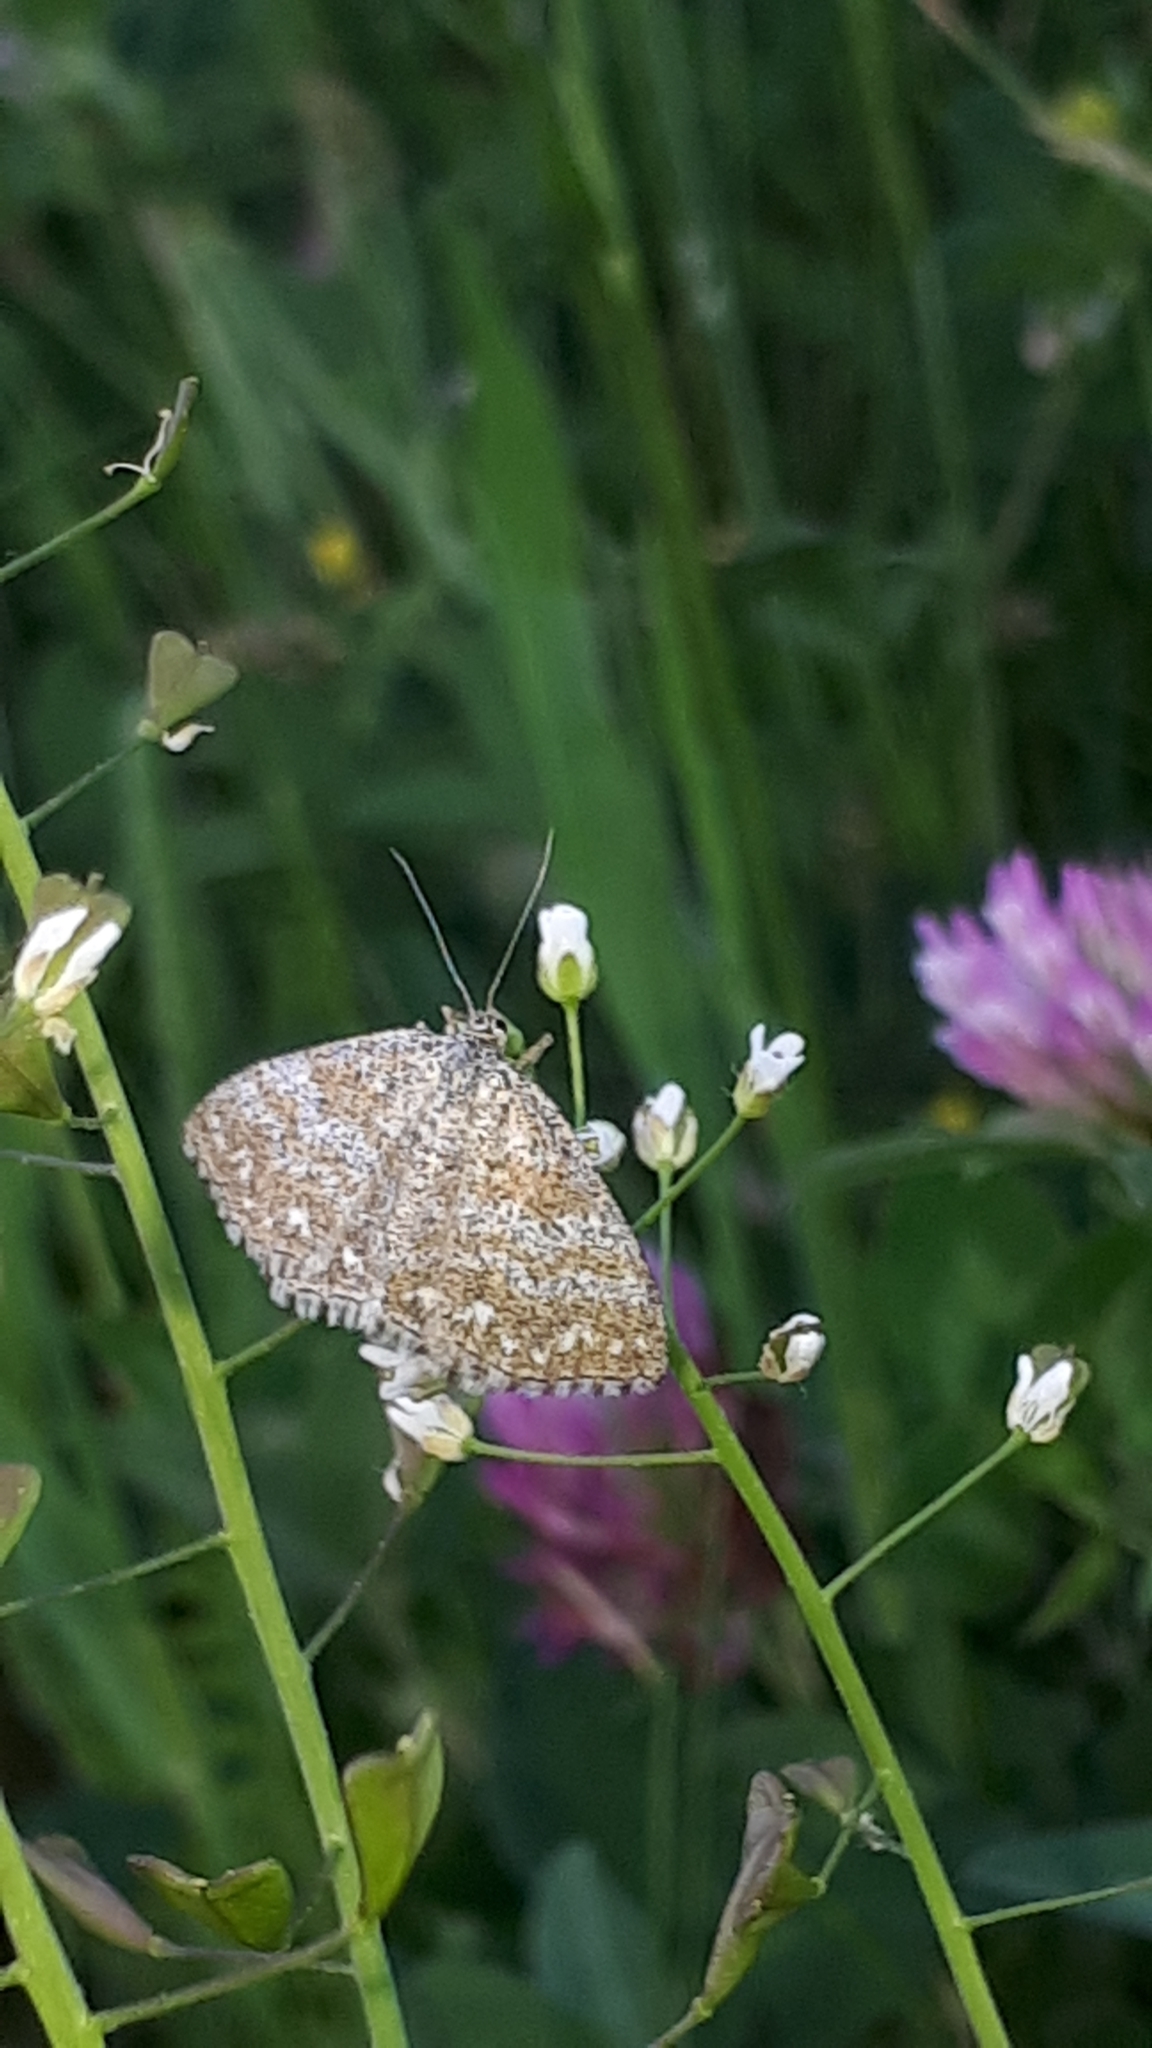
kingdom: Animalia
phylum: Arthropoda
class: Insecta
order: Lepidoptera
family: Geometridae
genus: Scopula
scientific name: Scopula immorata
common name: Lewes wave
